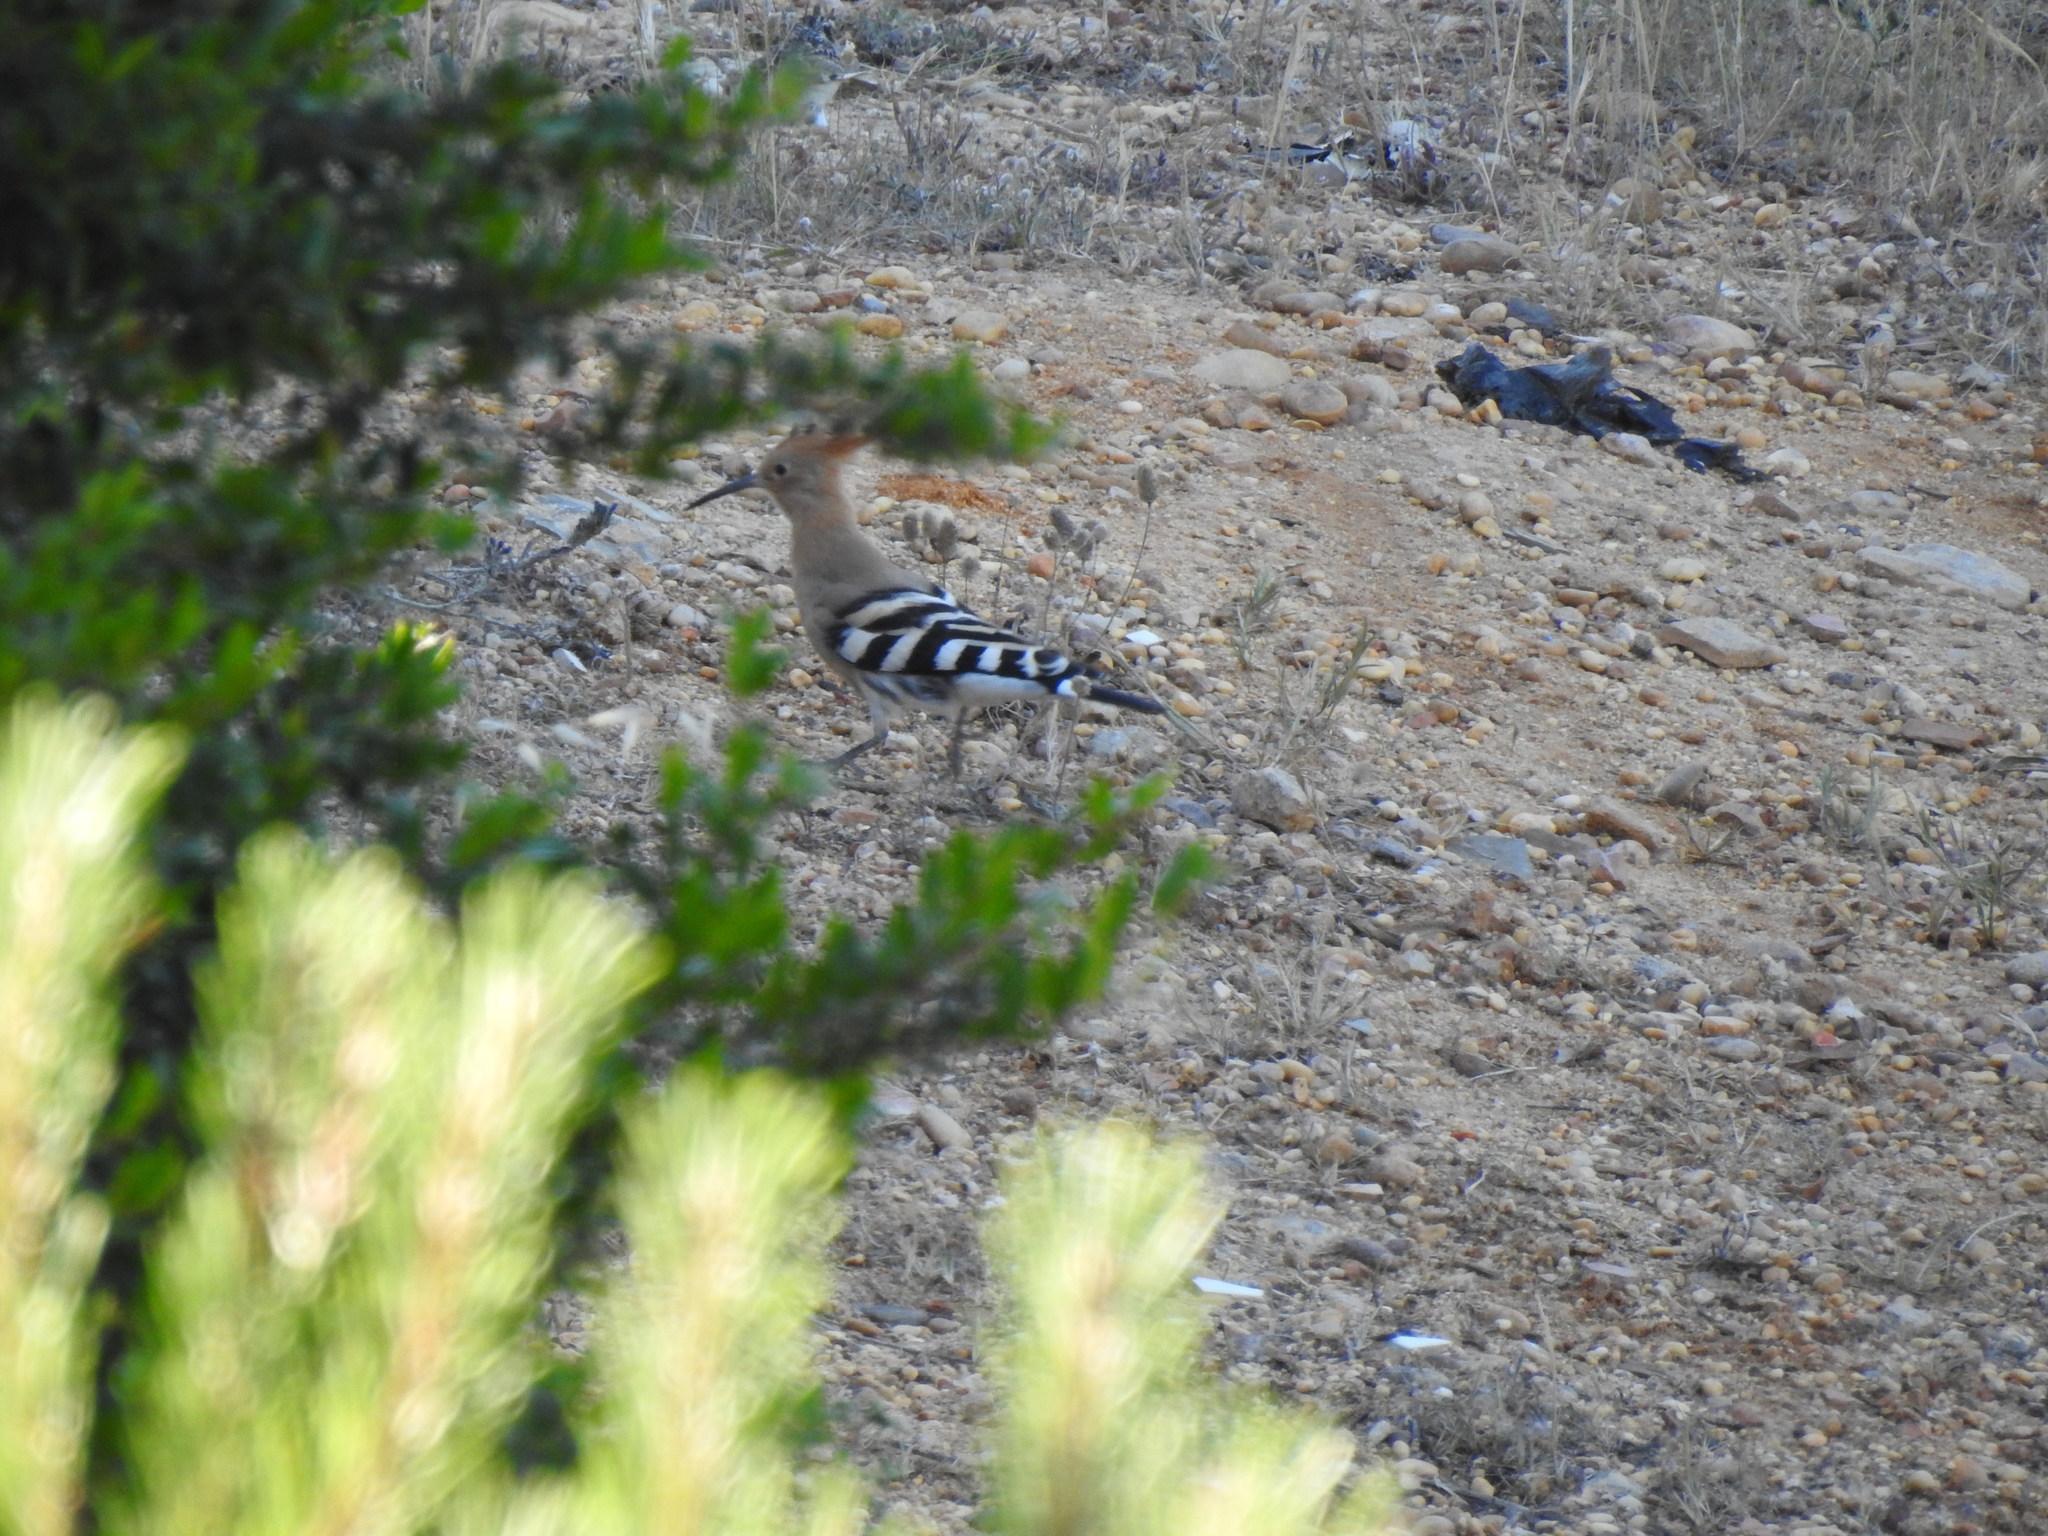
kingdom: Animalia
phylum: Chordata
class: Aves
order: Bucerotiformes
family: Upupidae
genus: Upupa
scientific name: Upupa epops
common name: Eurasian hoopoe
